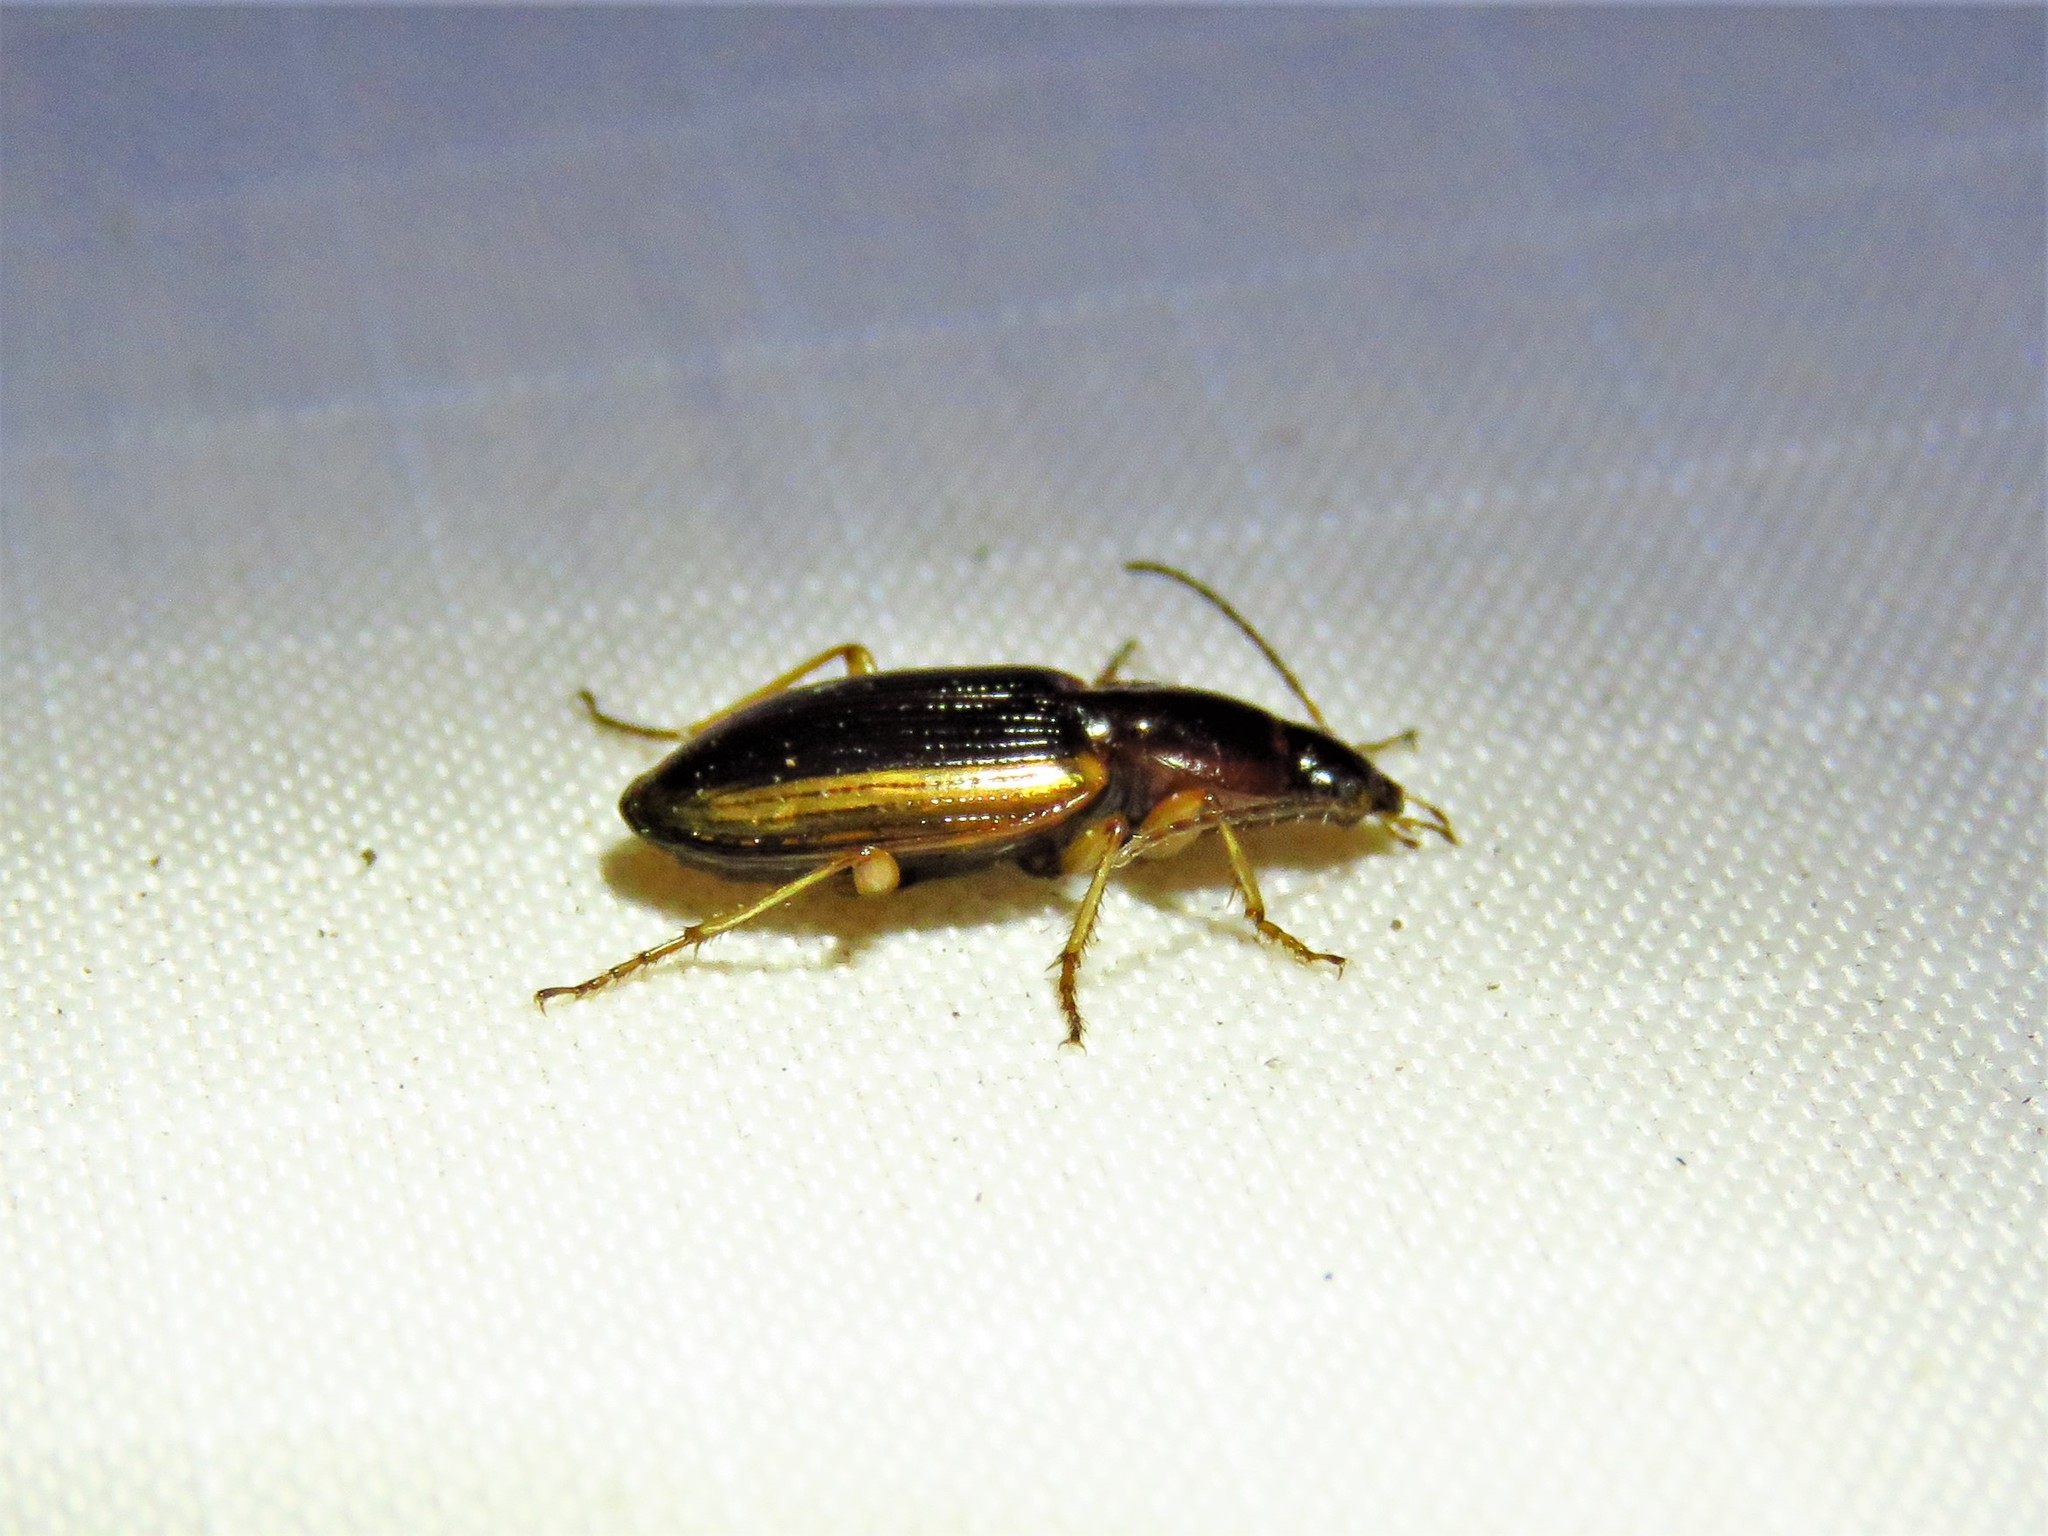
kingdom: Animalia
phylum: Arthropoda
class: Insecta
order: Coleoptera
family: Carabidae
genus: Agonum
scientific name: Agonum pallipes
